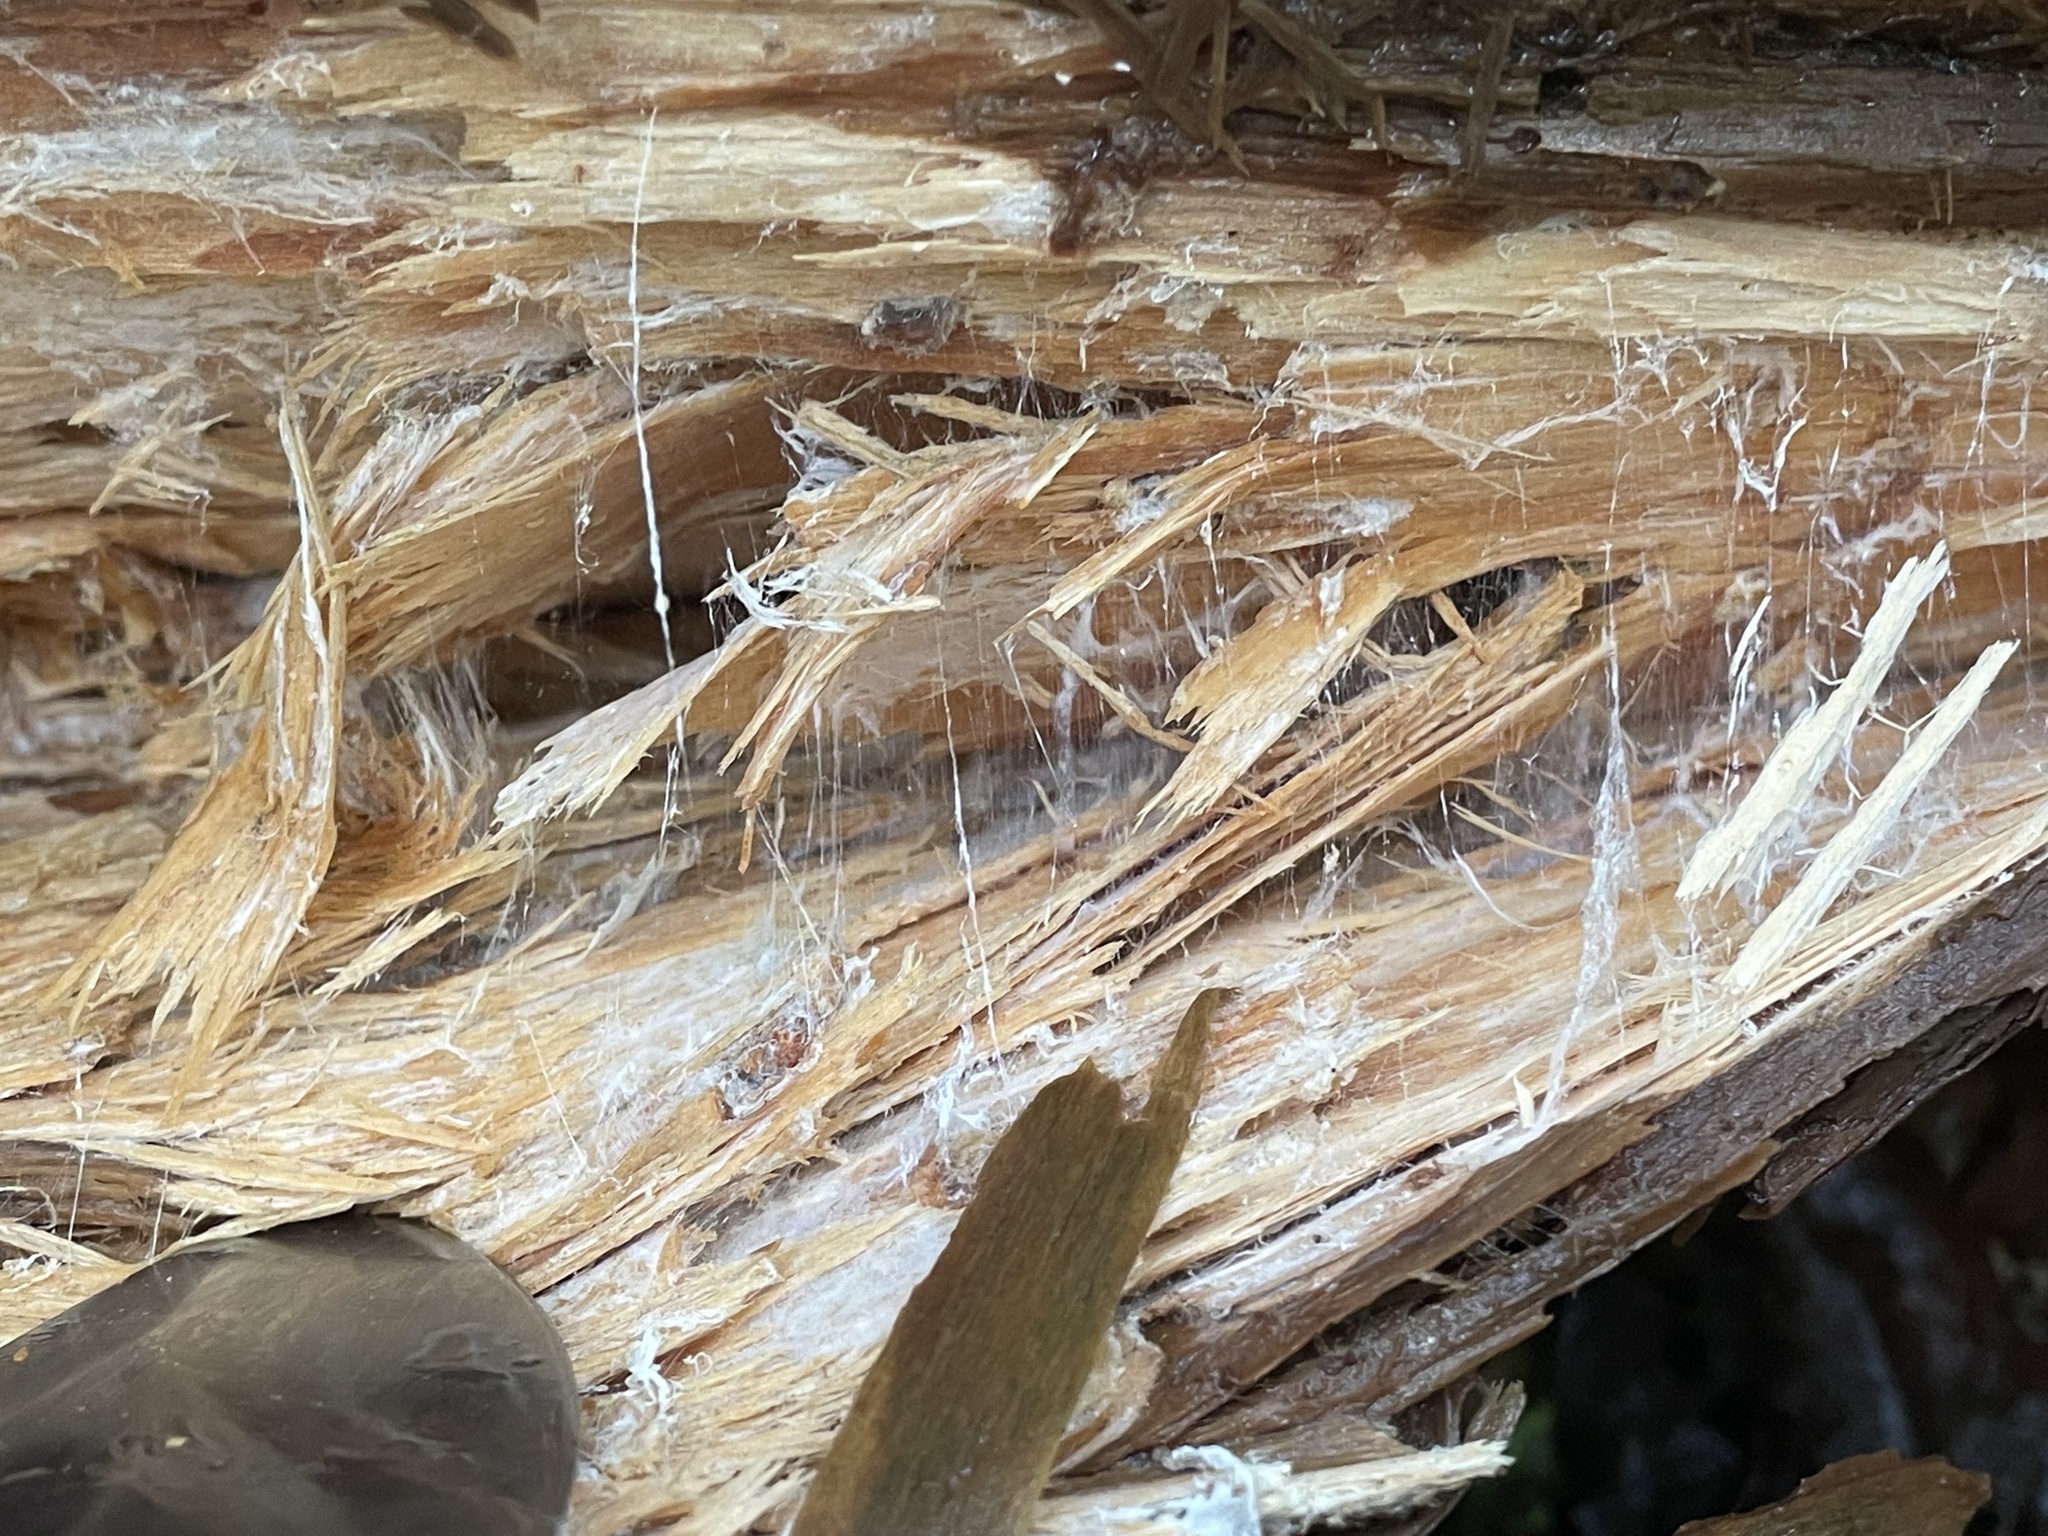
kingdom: Fungi
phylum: Basidiomycota
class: Agaricomycetes
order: Russulales
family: Bondarzewiaceae
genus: Wrightoporia
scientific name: Wrightoporia austrosinensis
